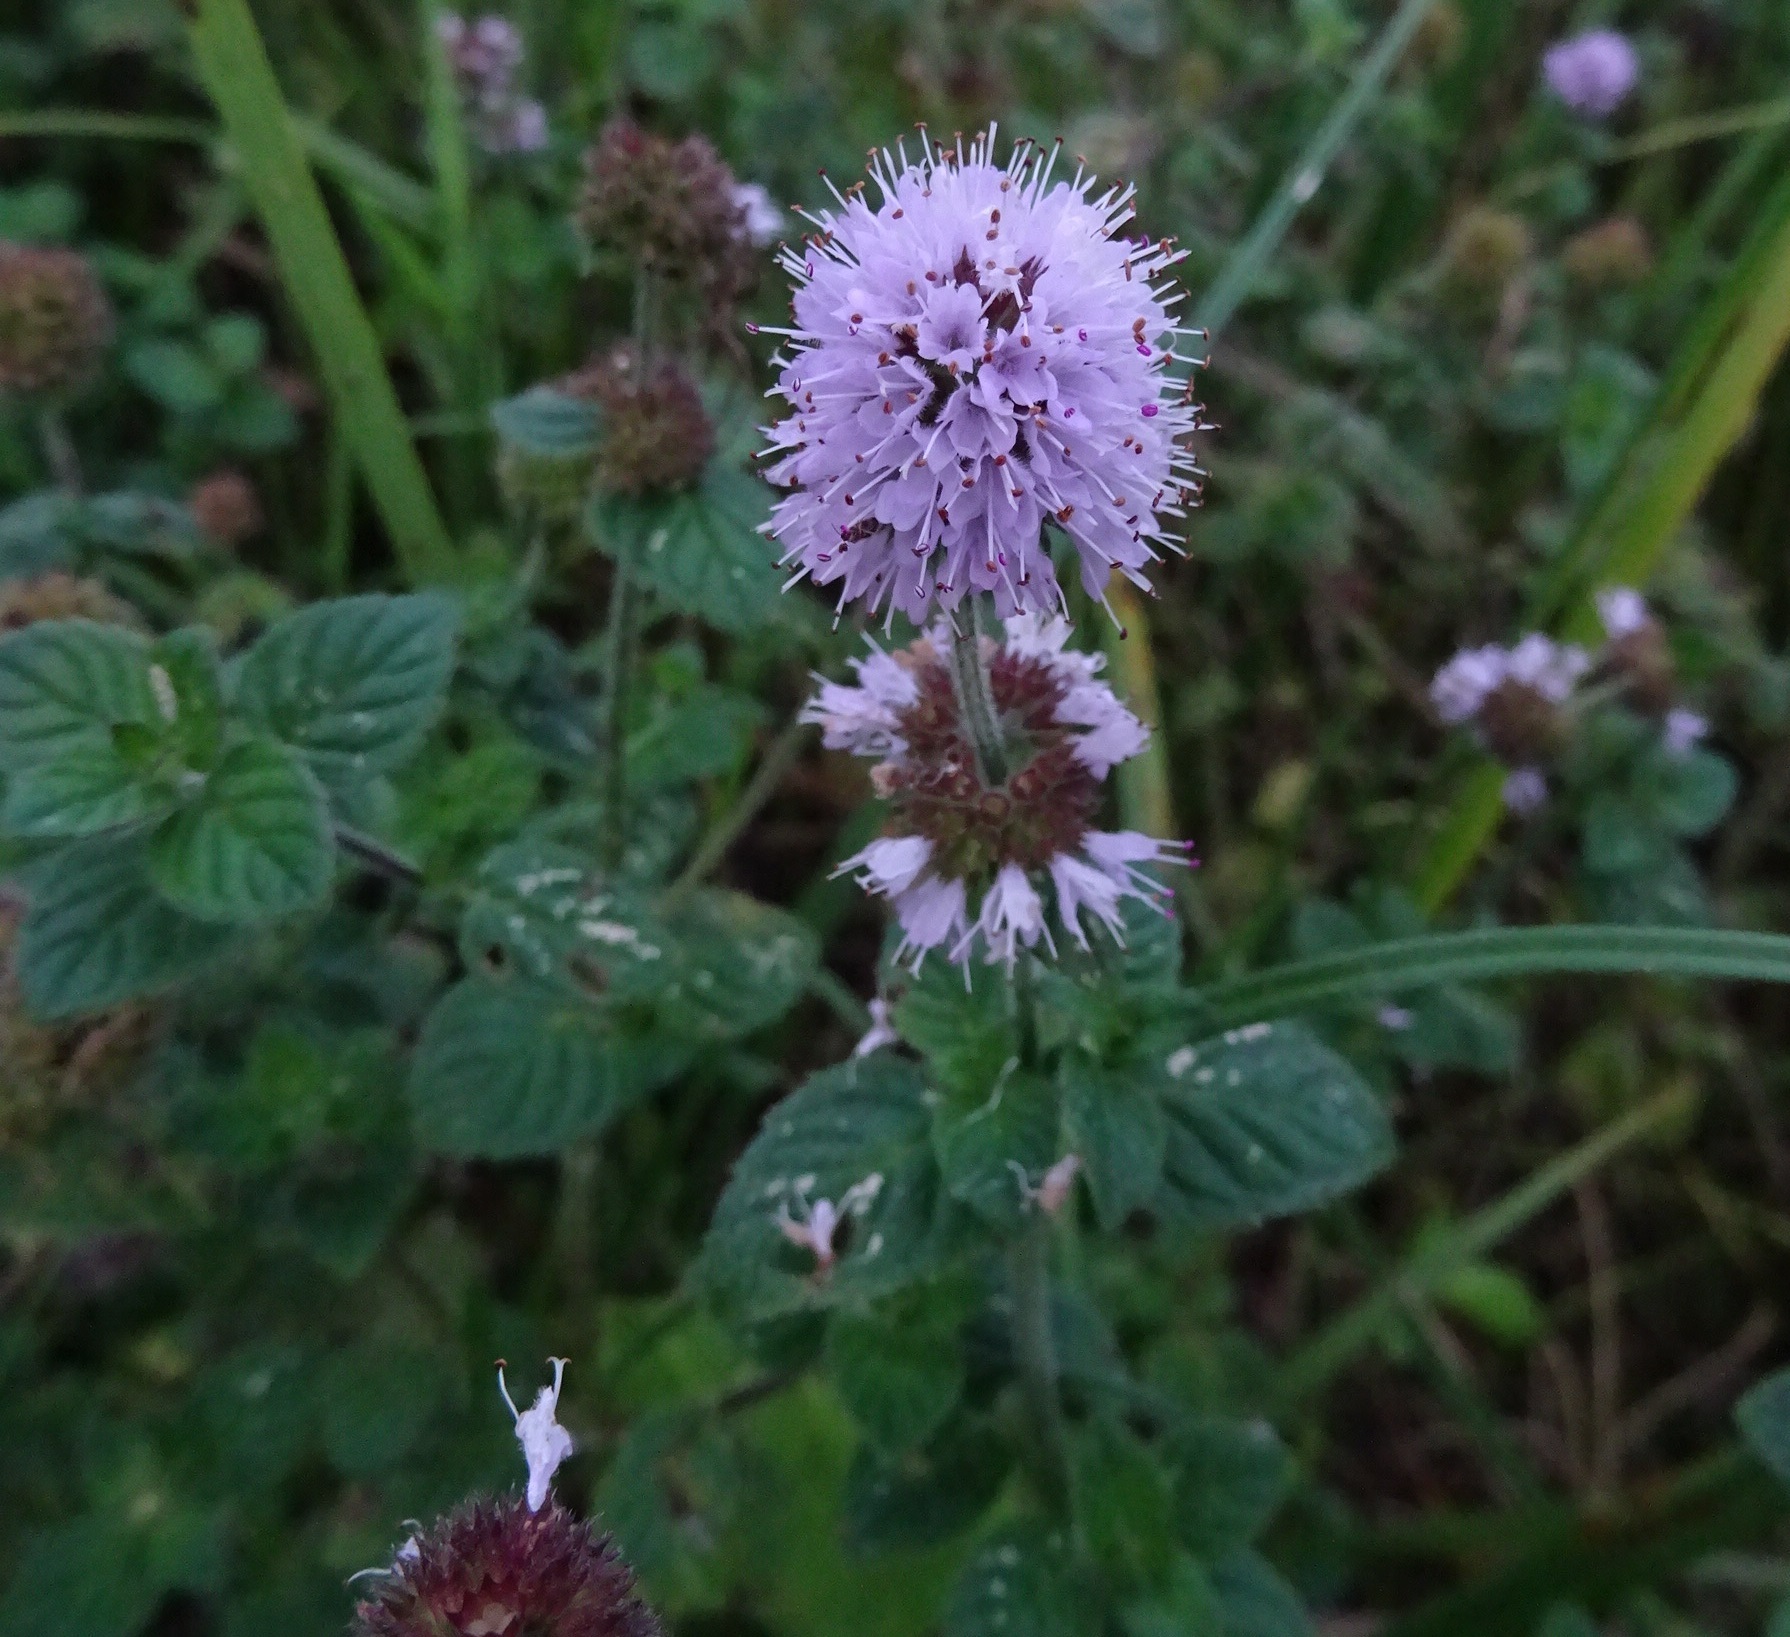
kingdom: Plantae
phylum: Tracheophyta
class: Magnoliopsida
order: Lamiales
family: Lamiaceae
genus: Mentha
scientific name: Mentha aquatica
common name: Water mint
